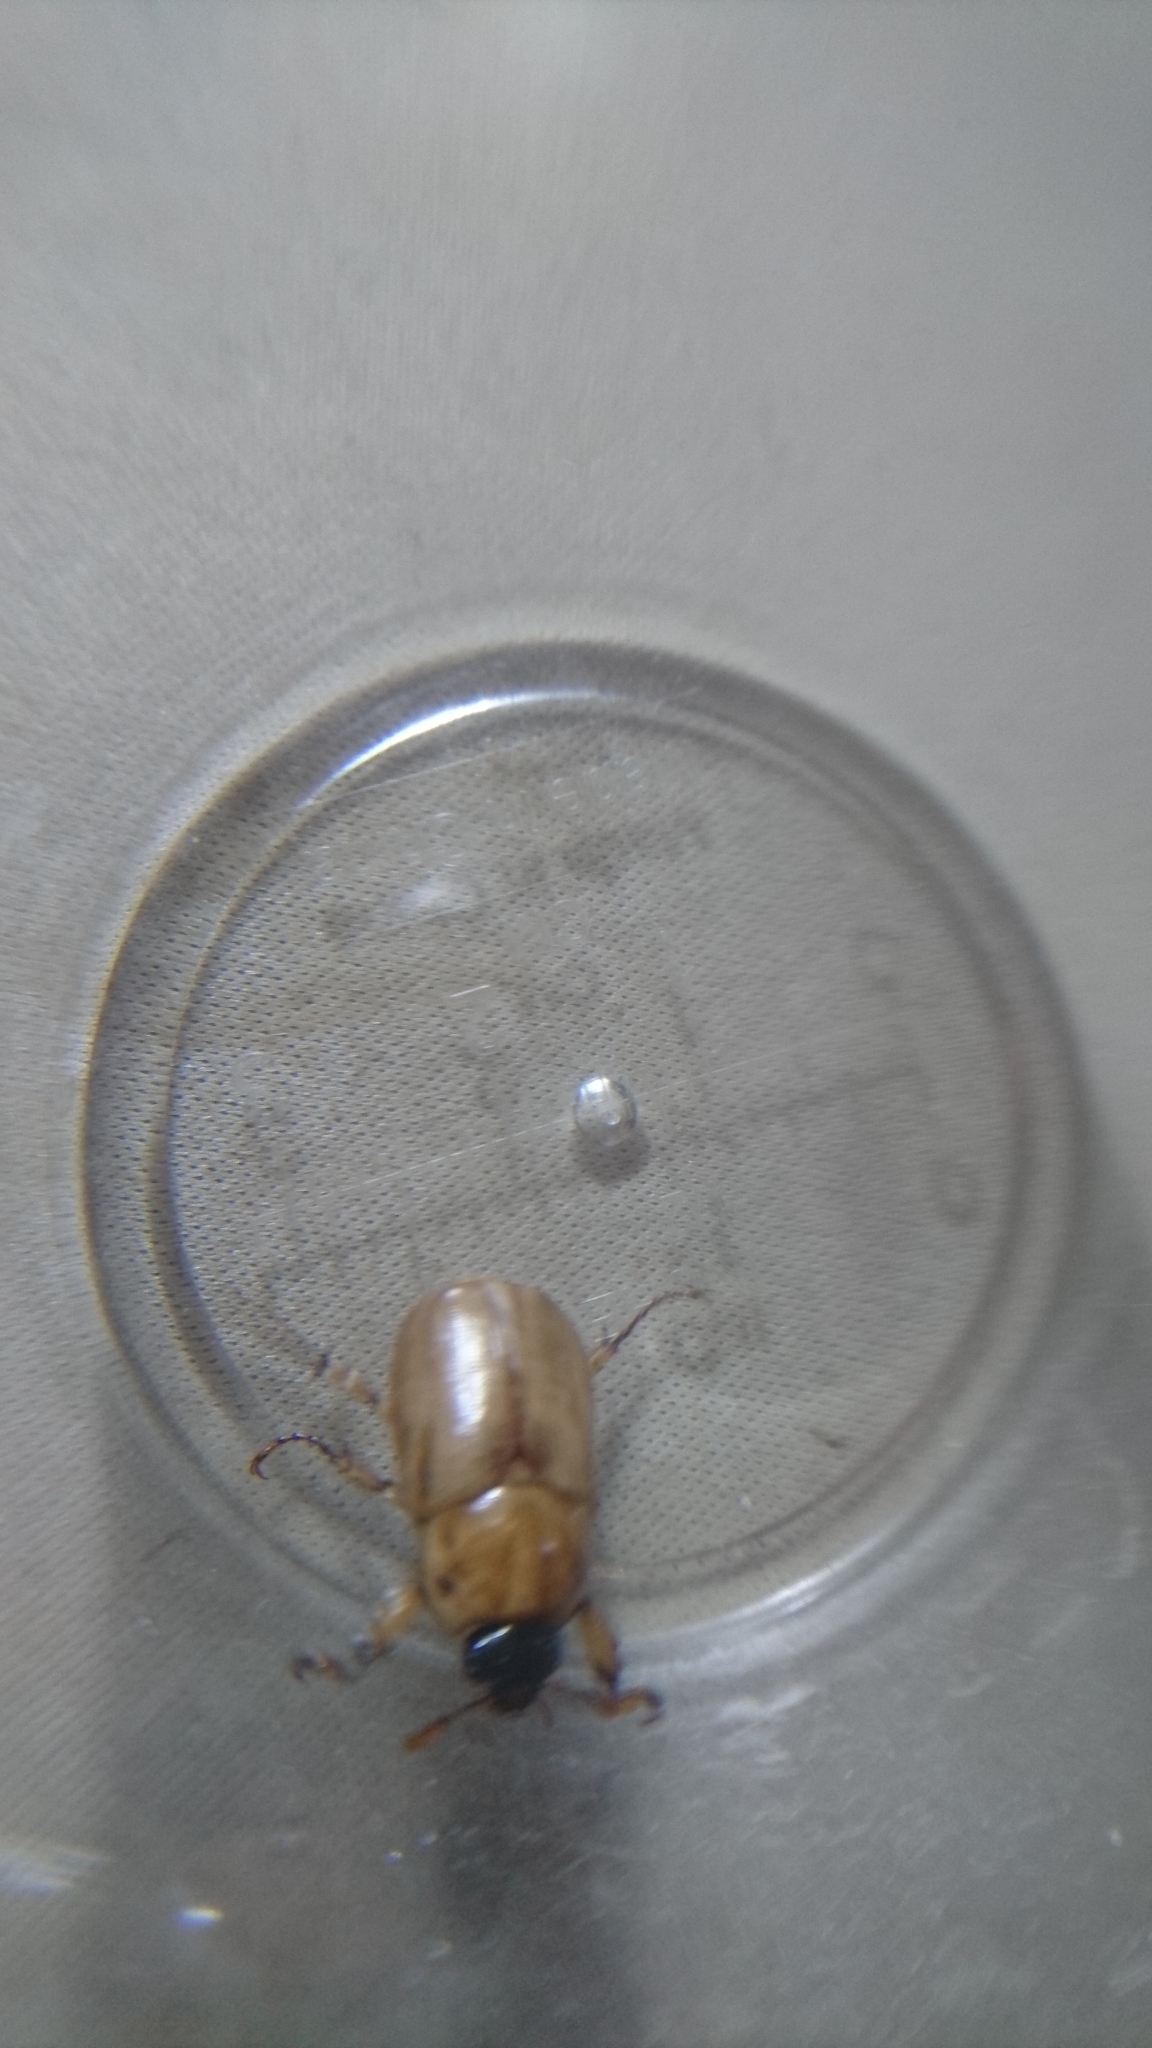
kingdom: Animalia
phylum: Arthropoda
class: Insecta
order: Coleoptera
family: Scarabaeidae
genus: Cyclocephala
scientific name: Cyclocephala signaticollis
